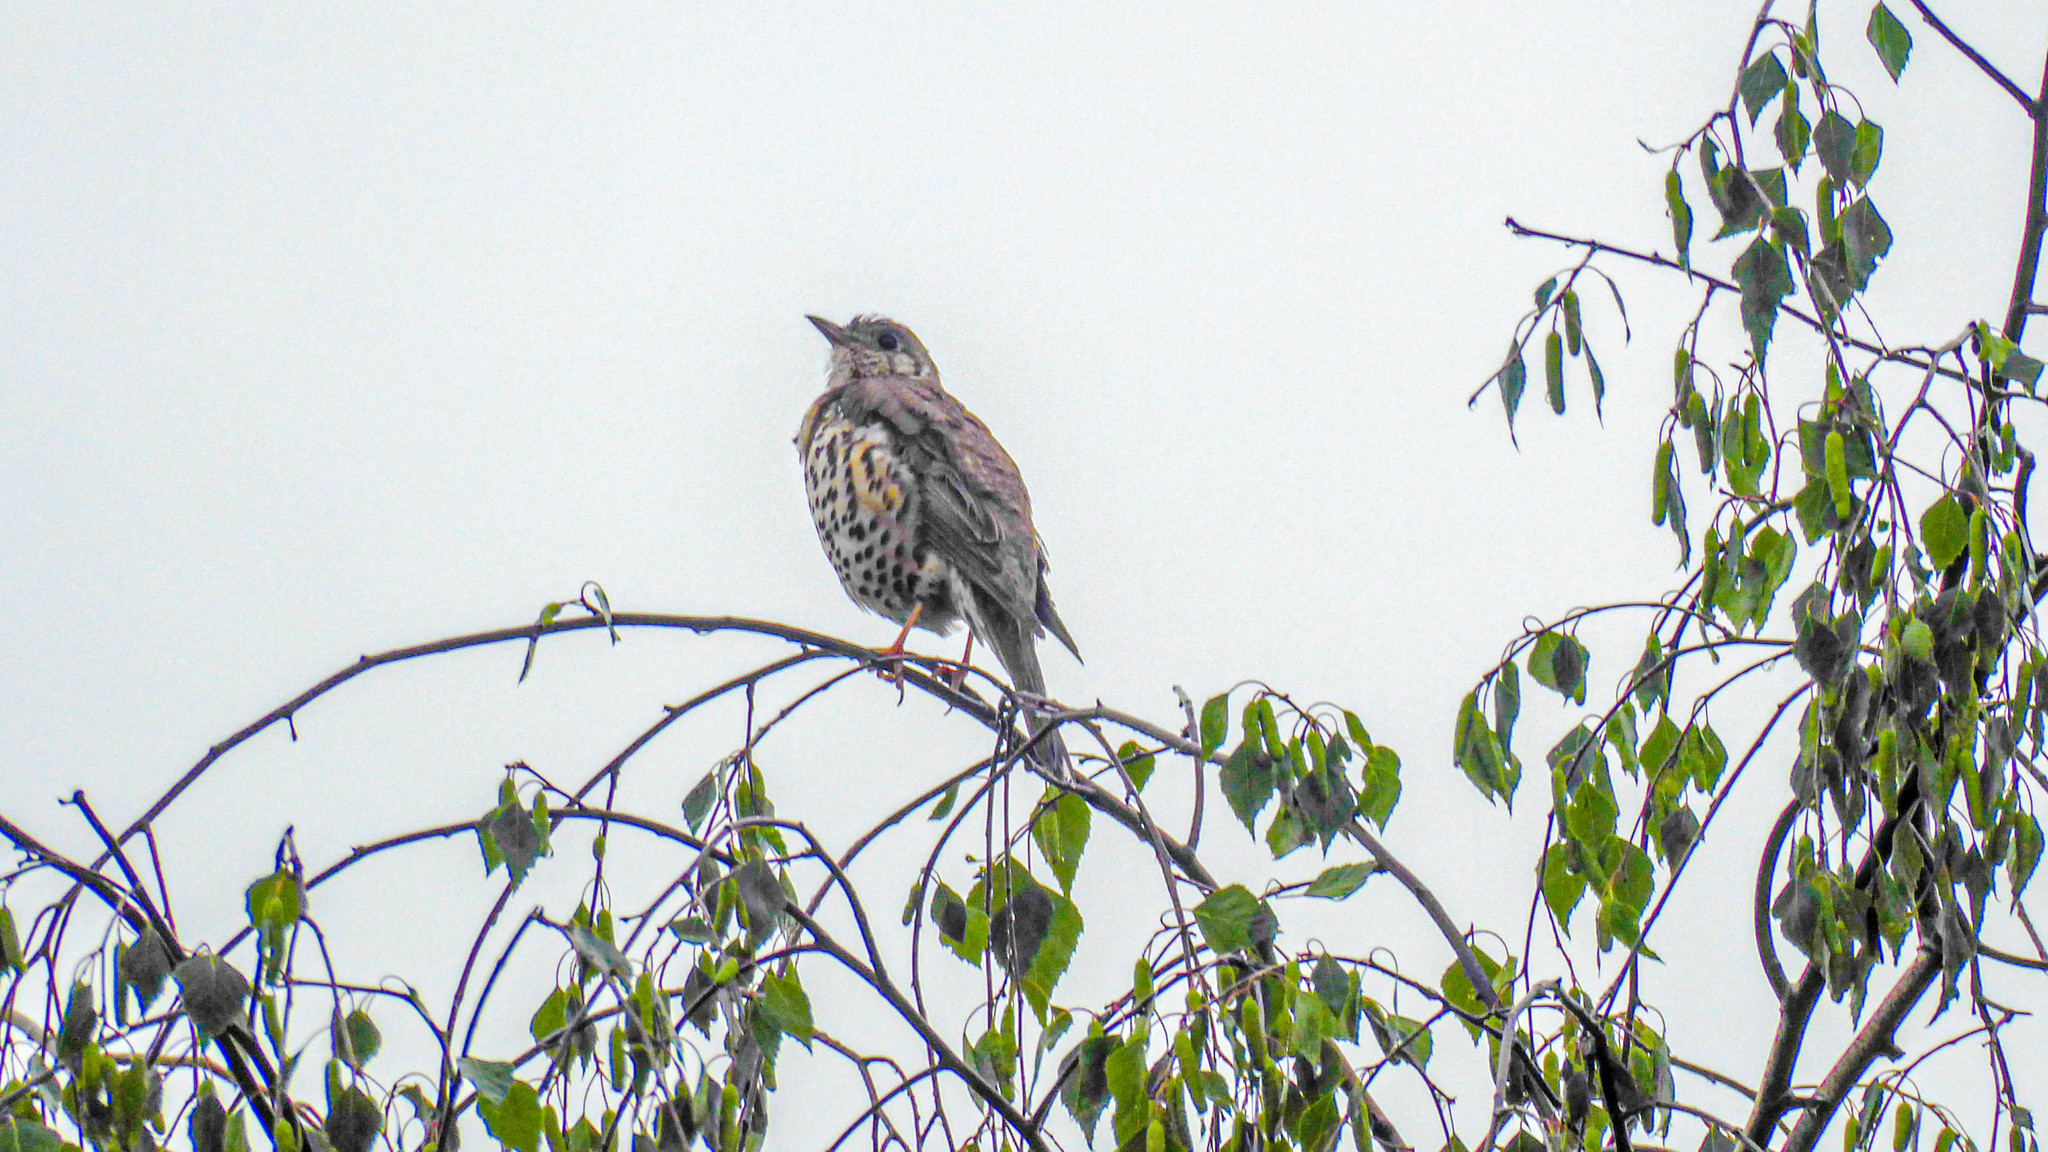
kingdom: Animalia
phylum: Chordata
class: Aves
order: Passeriformes
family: Turdidae
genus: Turdus
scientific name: Turdus viscivorus
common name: Mistle thrush
